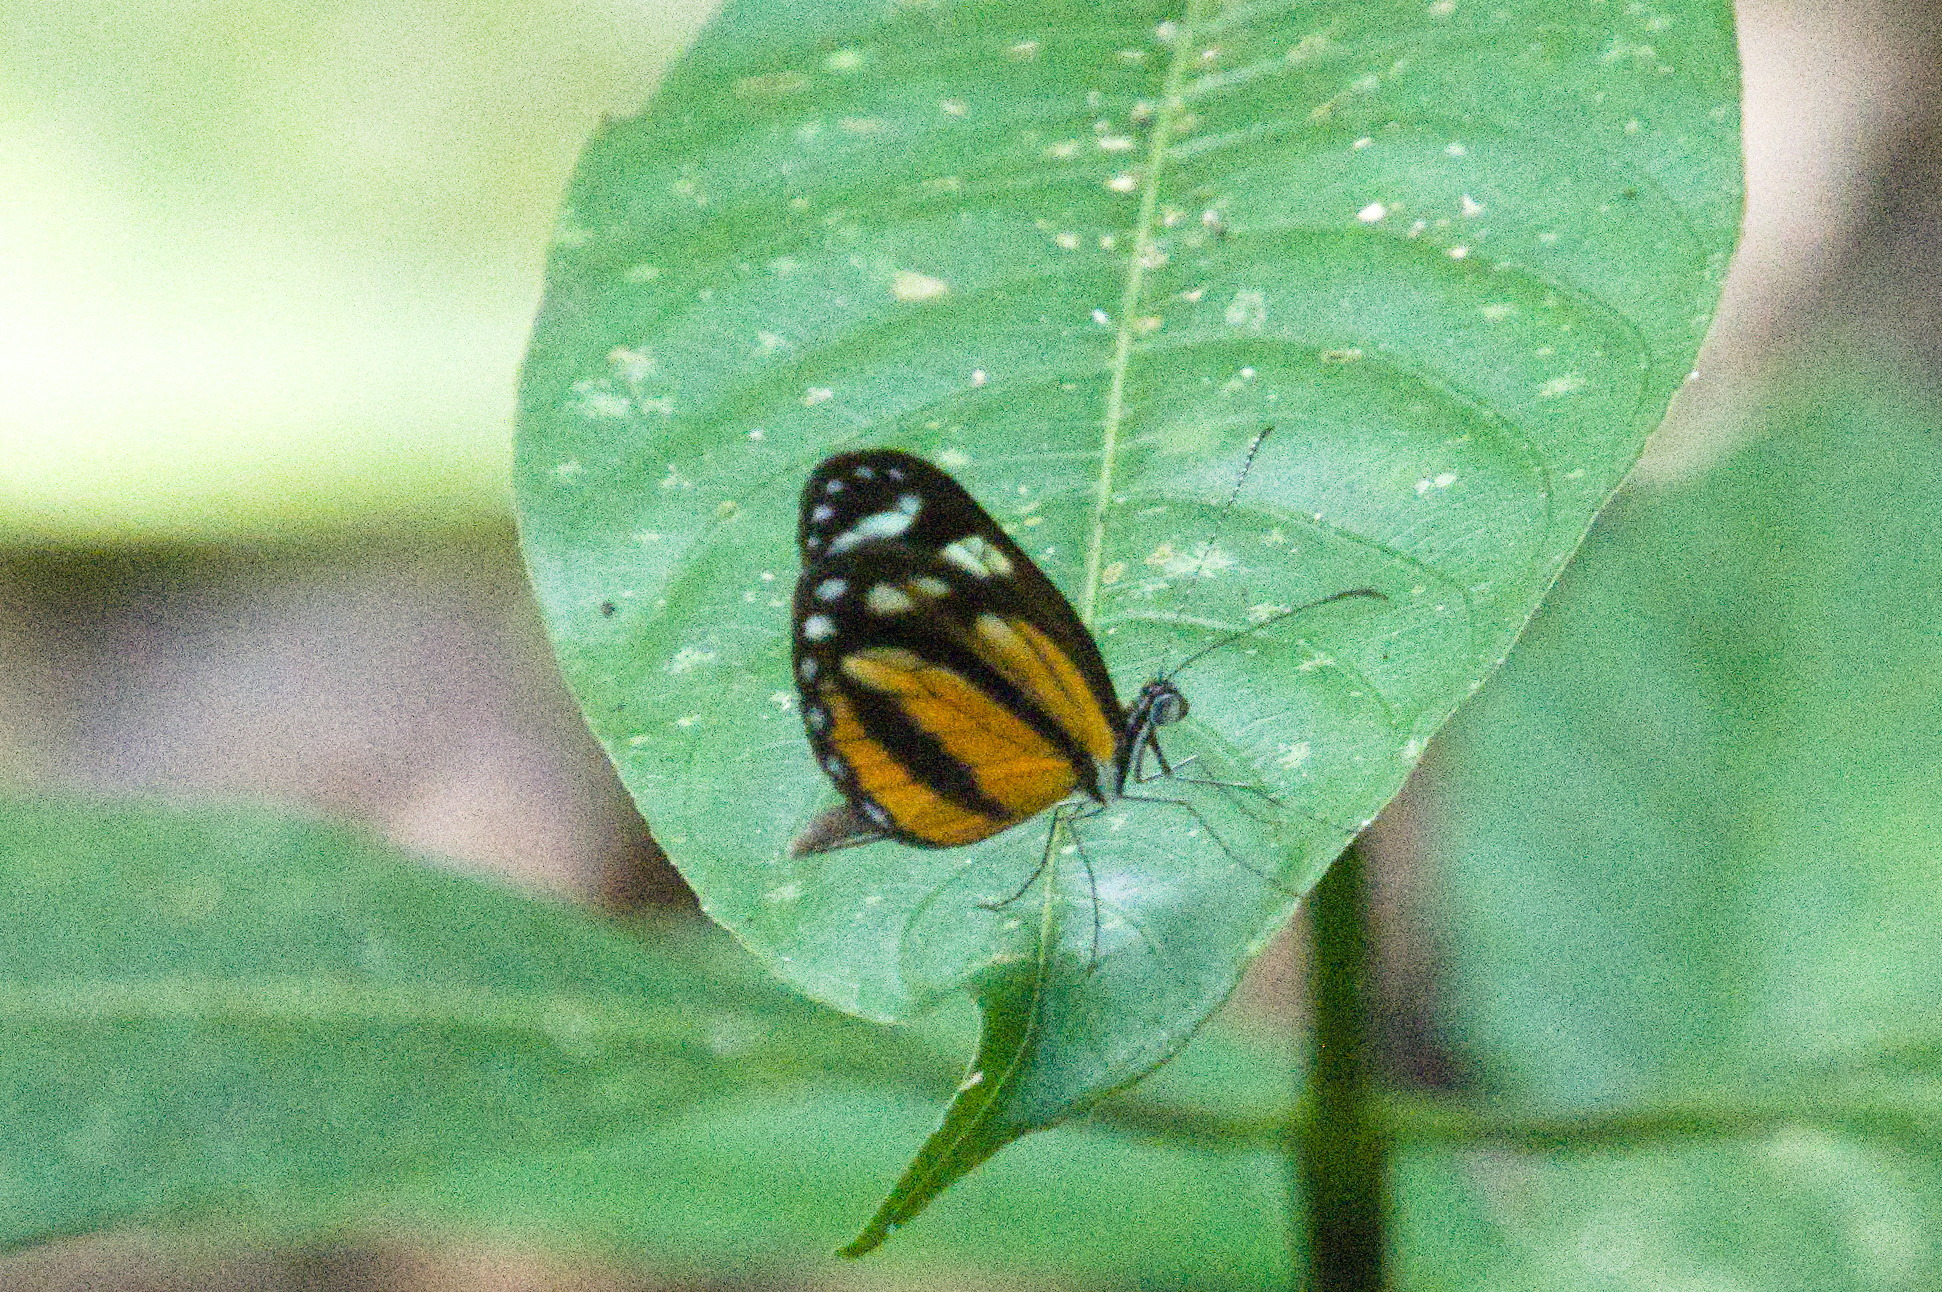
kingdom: Animalia
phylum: Arthropoda
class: Insecta
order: Lepidoptera
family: Pieridae
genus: Dismorphia
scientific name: Dismorphia theucharila
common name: Clearwing mimic-white
